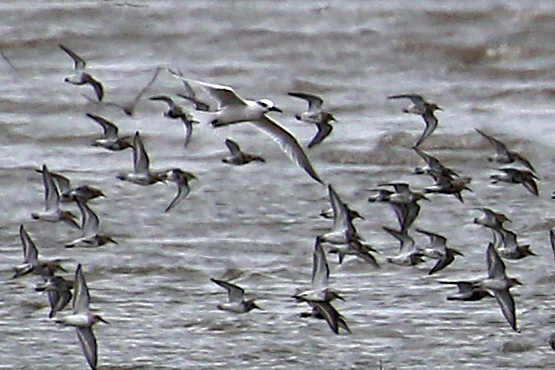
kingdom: Animalia
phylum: Chordata
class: Aves
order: Charadriiformes
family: Laridae
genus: Thalasseus
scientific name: Thalasseus sandvicensis
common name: Sandwich tern
